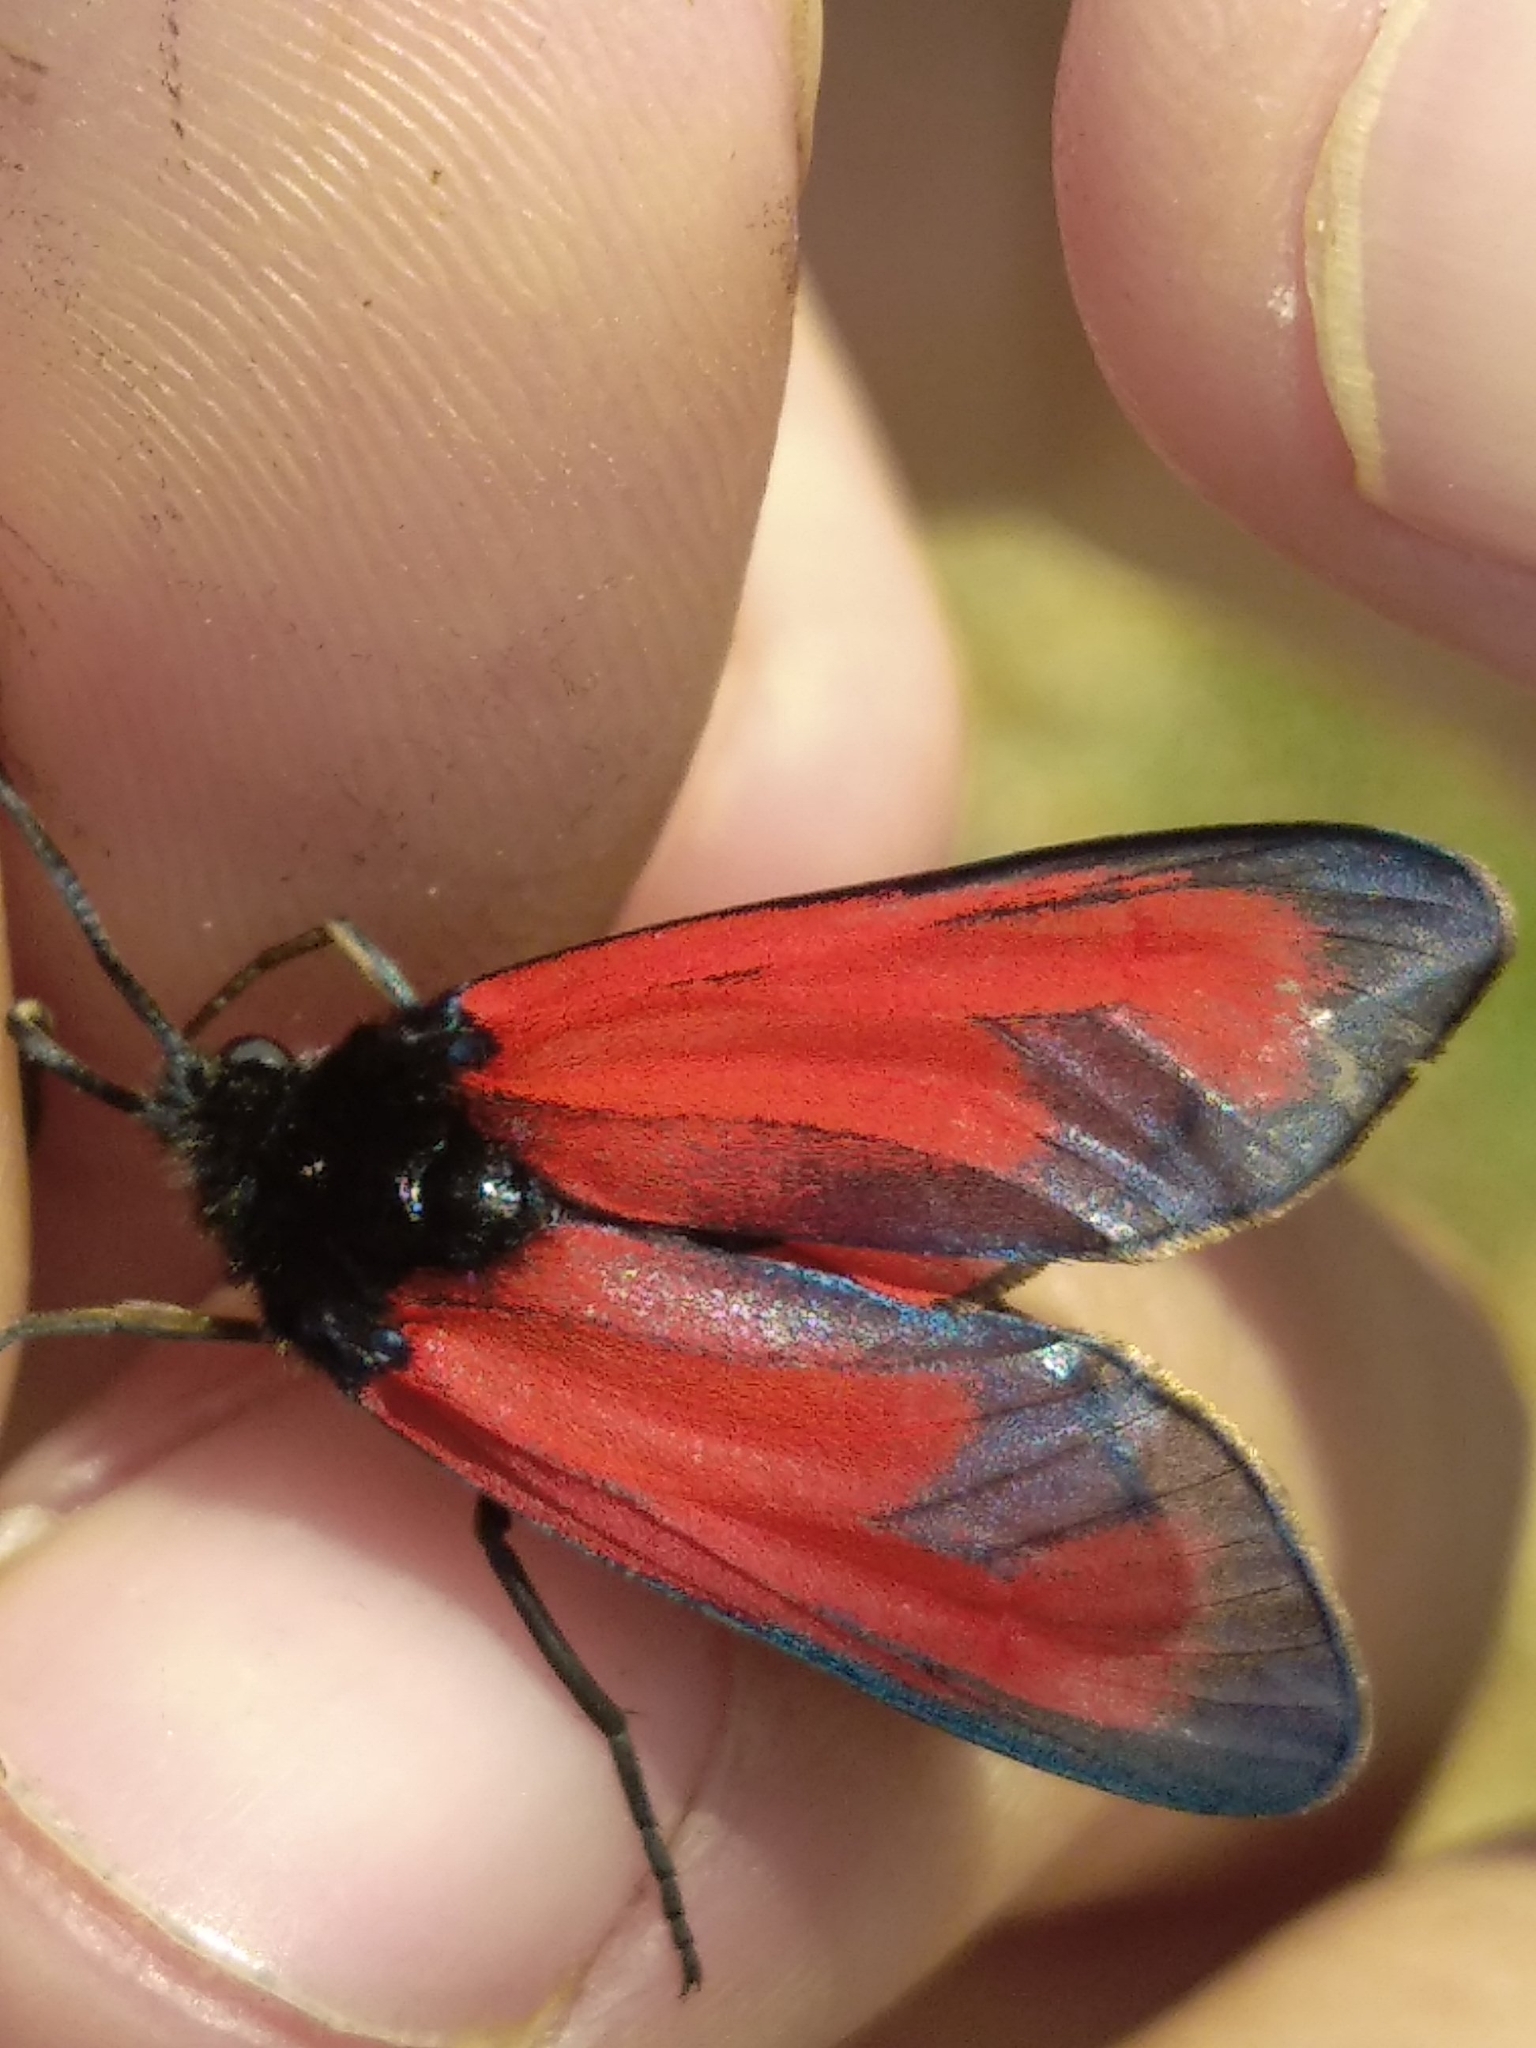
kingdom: Animalia
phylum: Arthropoda
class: Insecta
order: Lepidoptera
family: Zygaenidae
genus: Zygaena
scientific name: Zygaena erythrus
